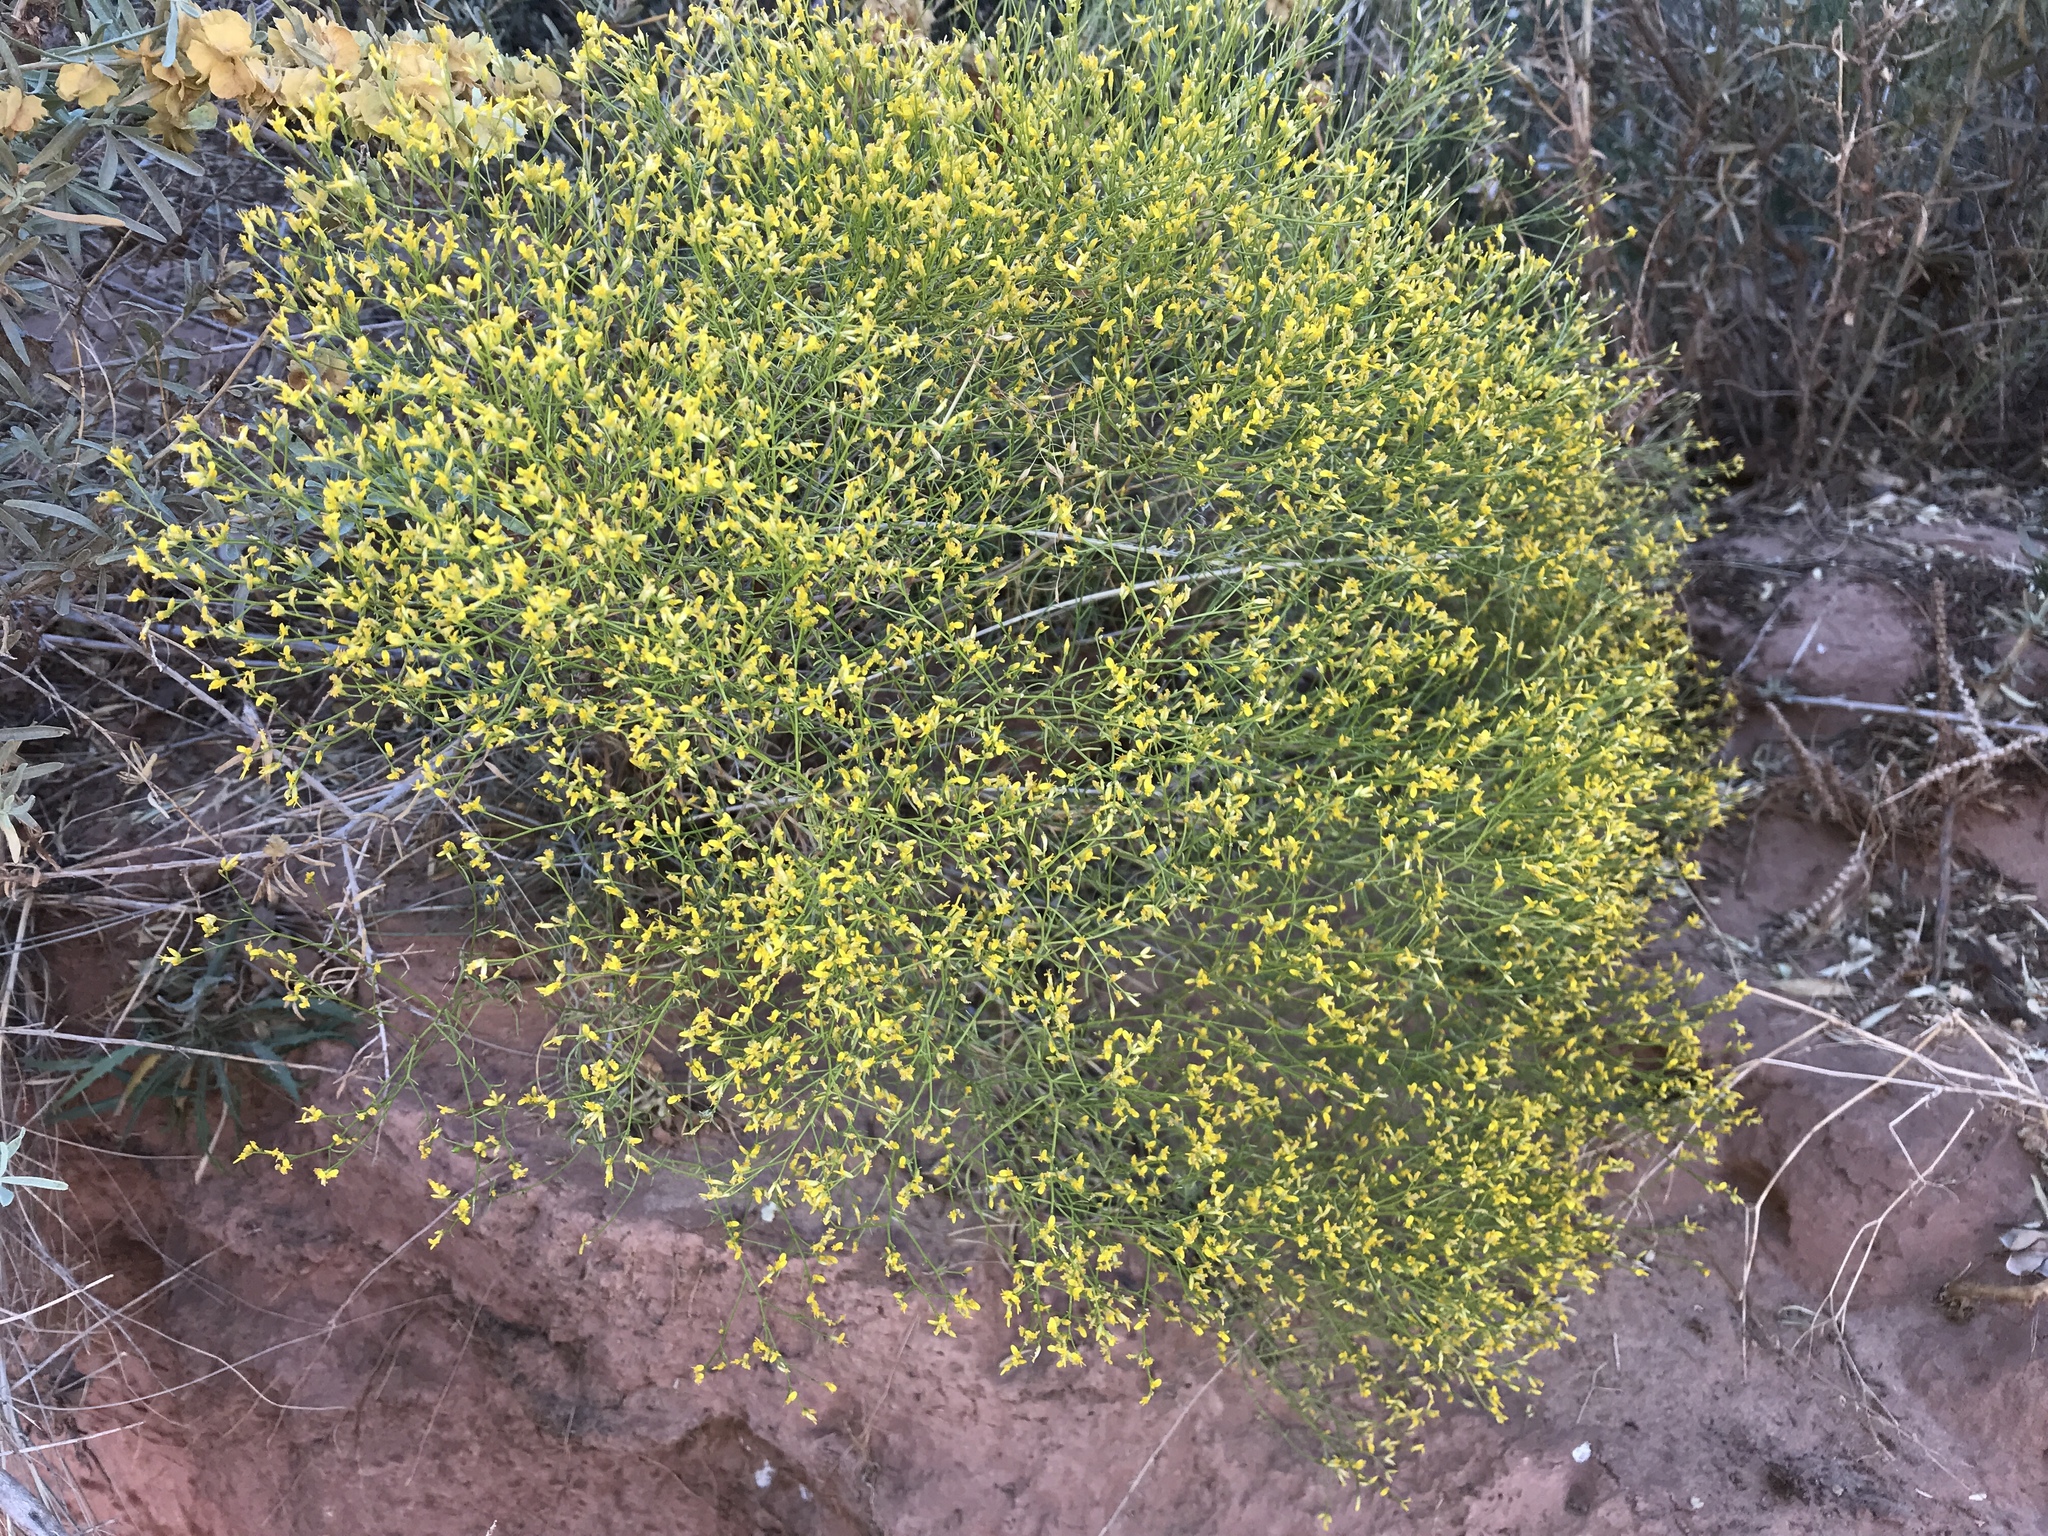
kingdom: Plantae
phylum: Tracheophyta
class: Magnoliopsida
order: Asterales
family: Asteraceae
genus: Gutierrezia
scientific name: Gutierrezia microcephala
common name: Thread snakeweed
